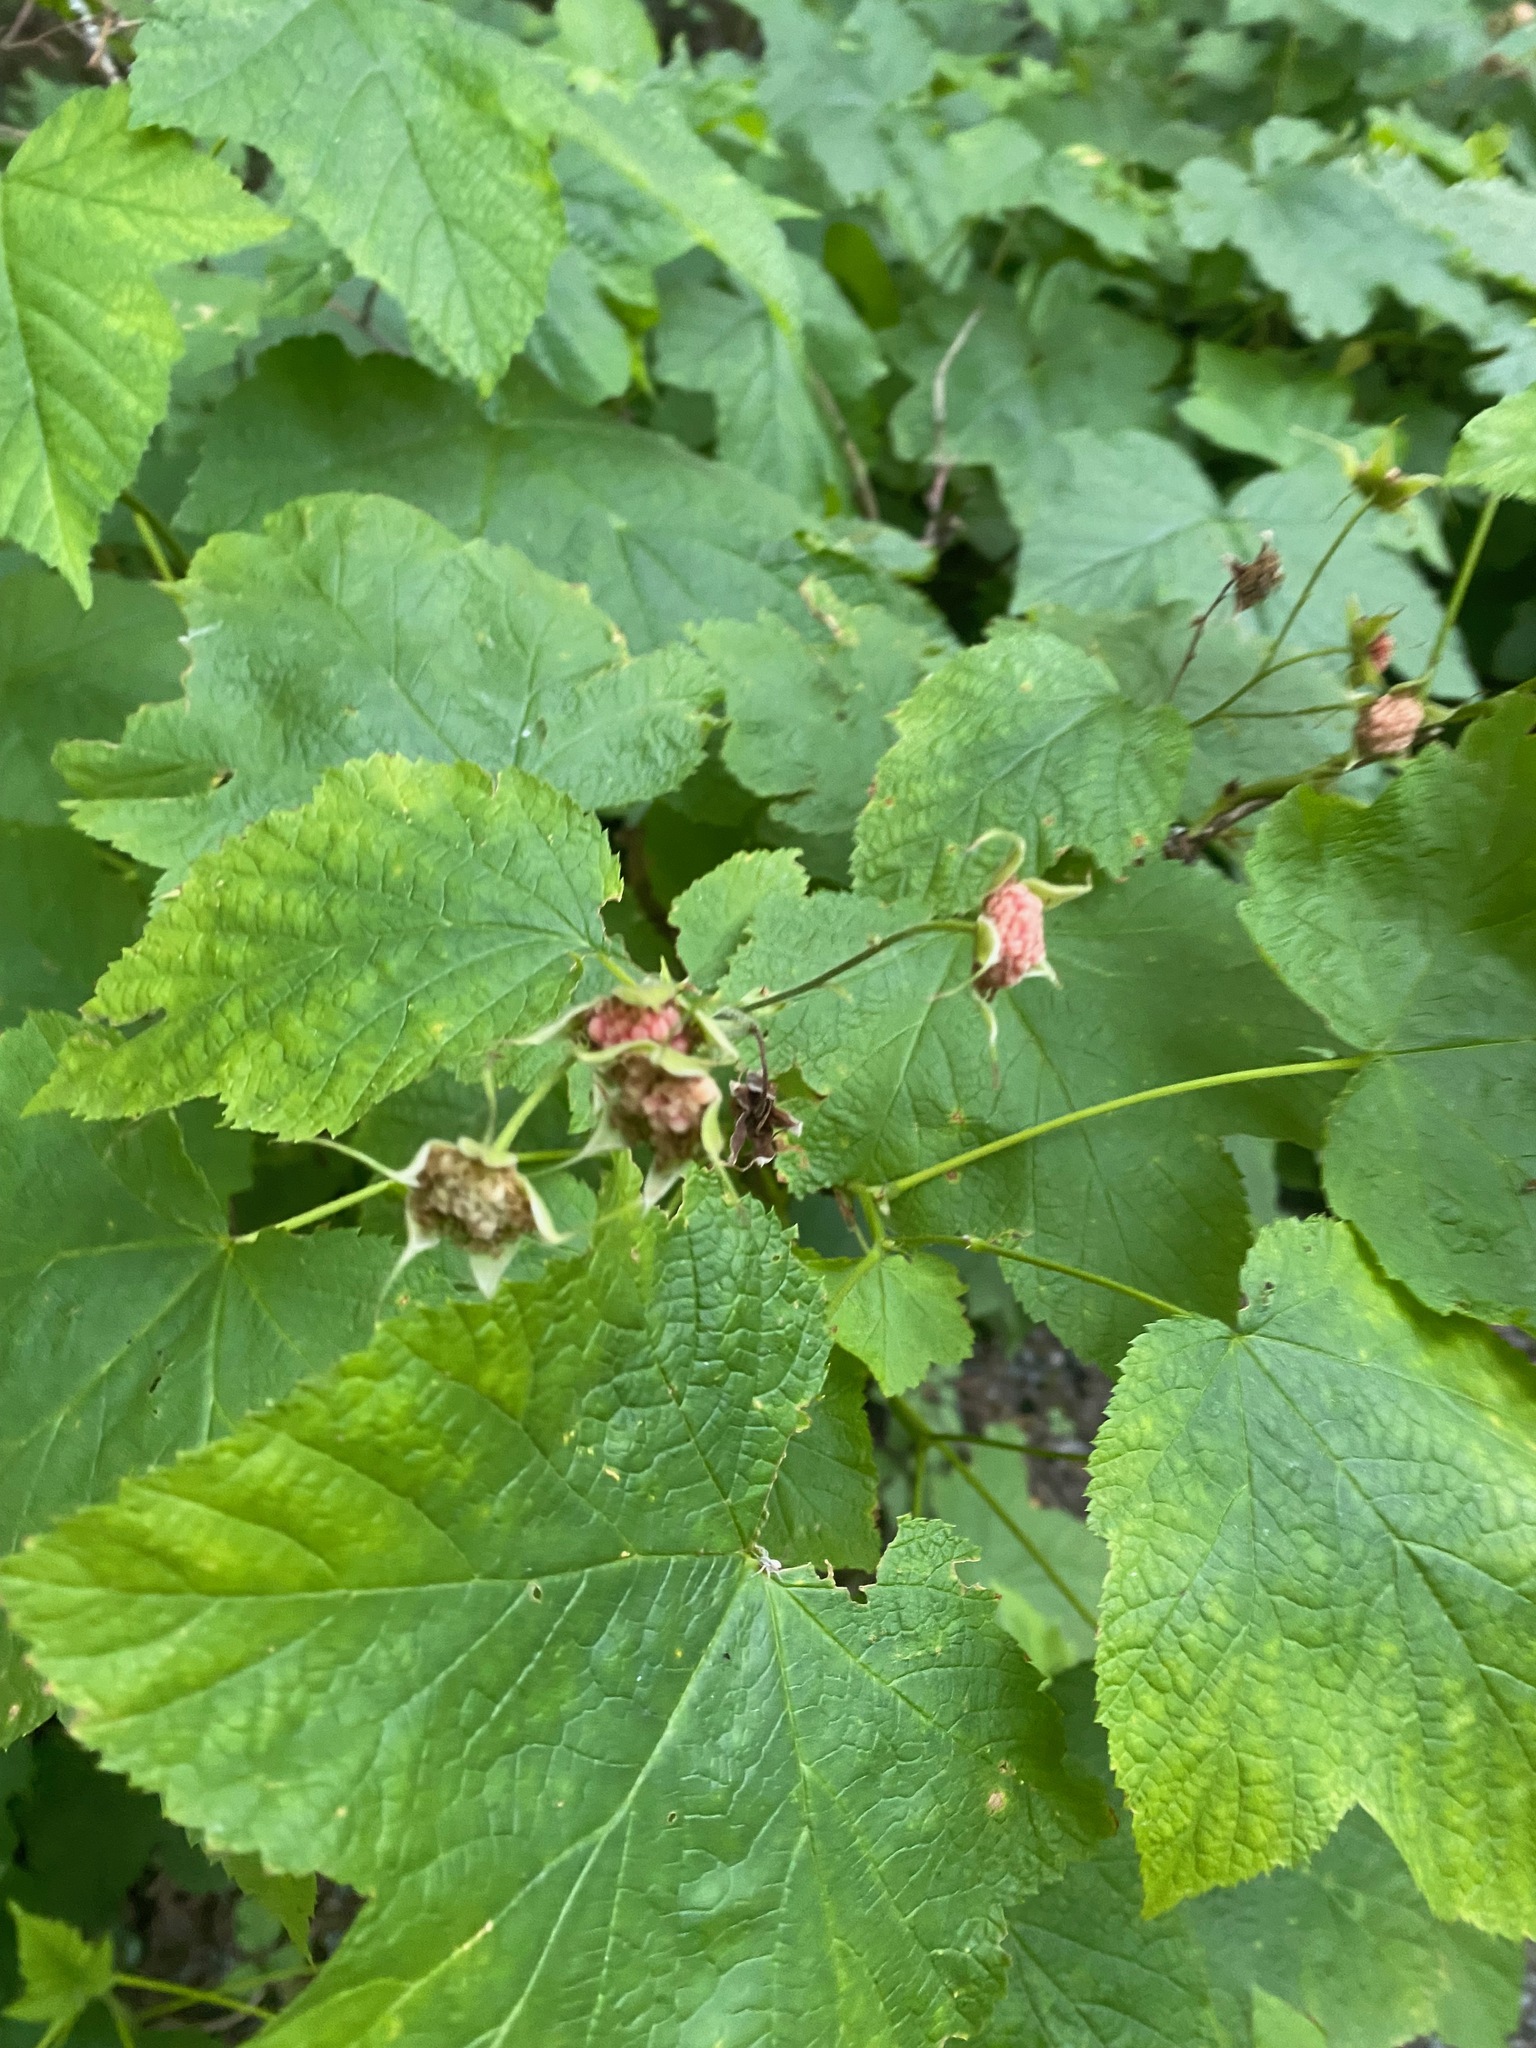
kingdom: Plantae
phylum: Tracheophyta
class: Magnoliopsida
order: Rosales
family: Rosaceae
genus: Rubus
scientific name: Rubus parviflorus
